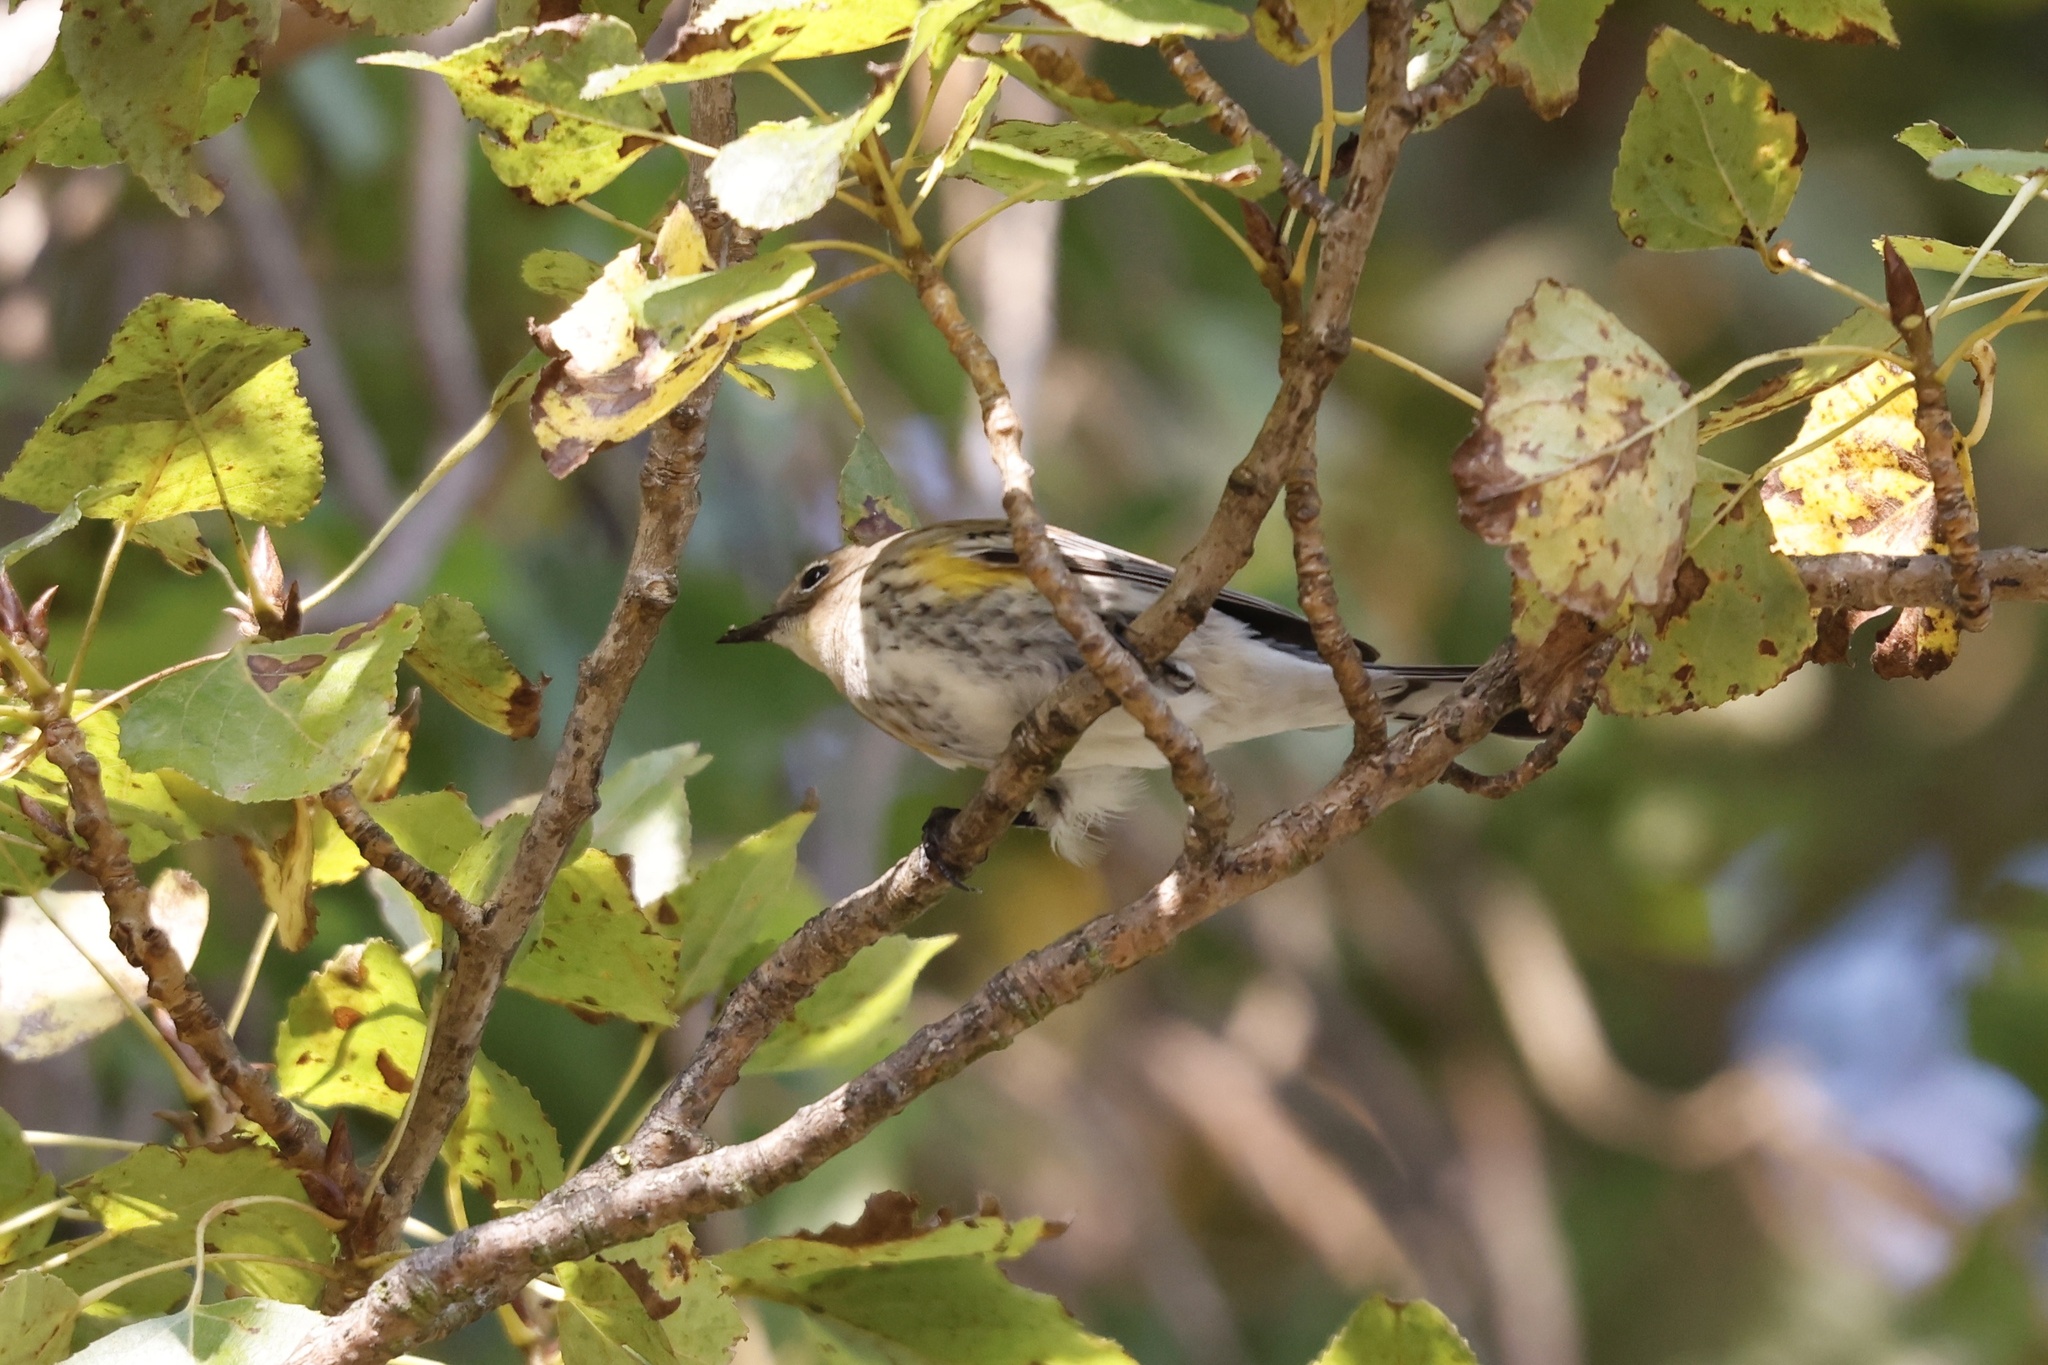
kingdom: Animalia
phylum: Chordata
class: Aves
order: Passeriformes
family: Parulidae
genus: Setophaga
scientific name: Setophaga coronata
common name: Myrtle warbler
